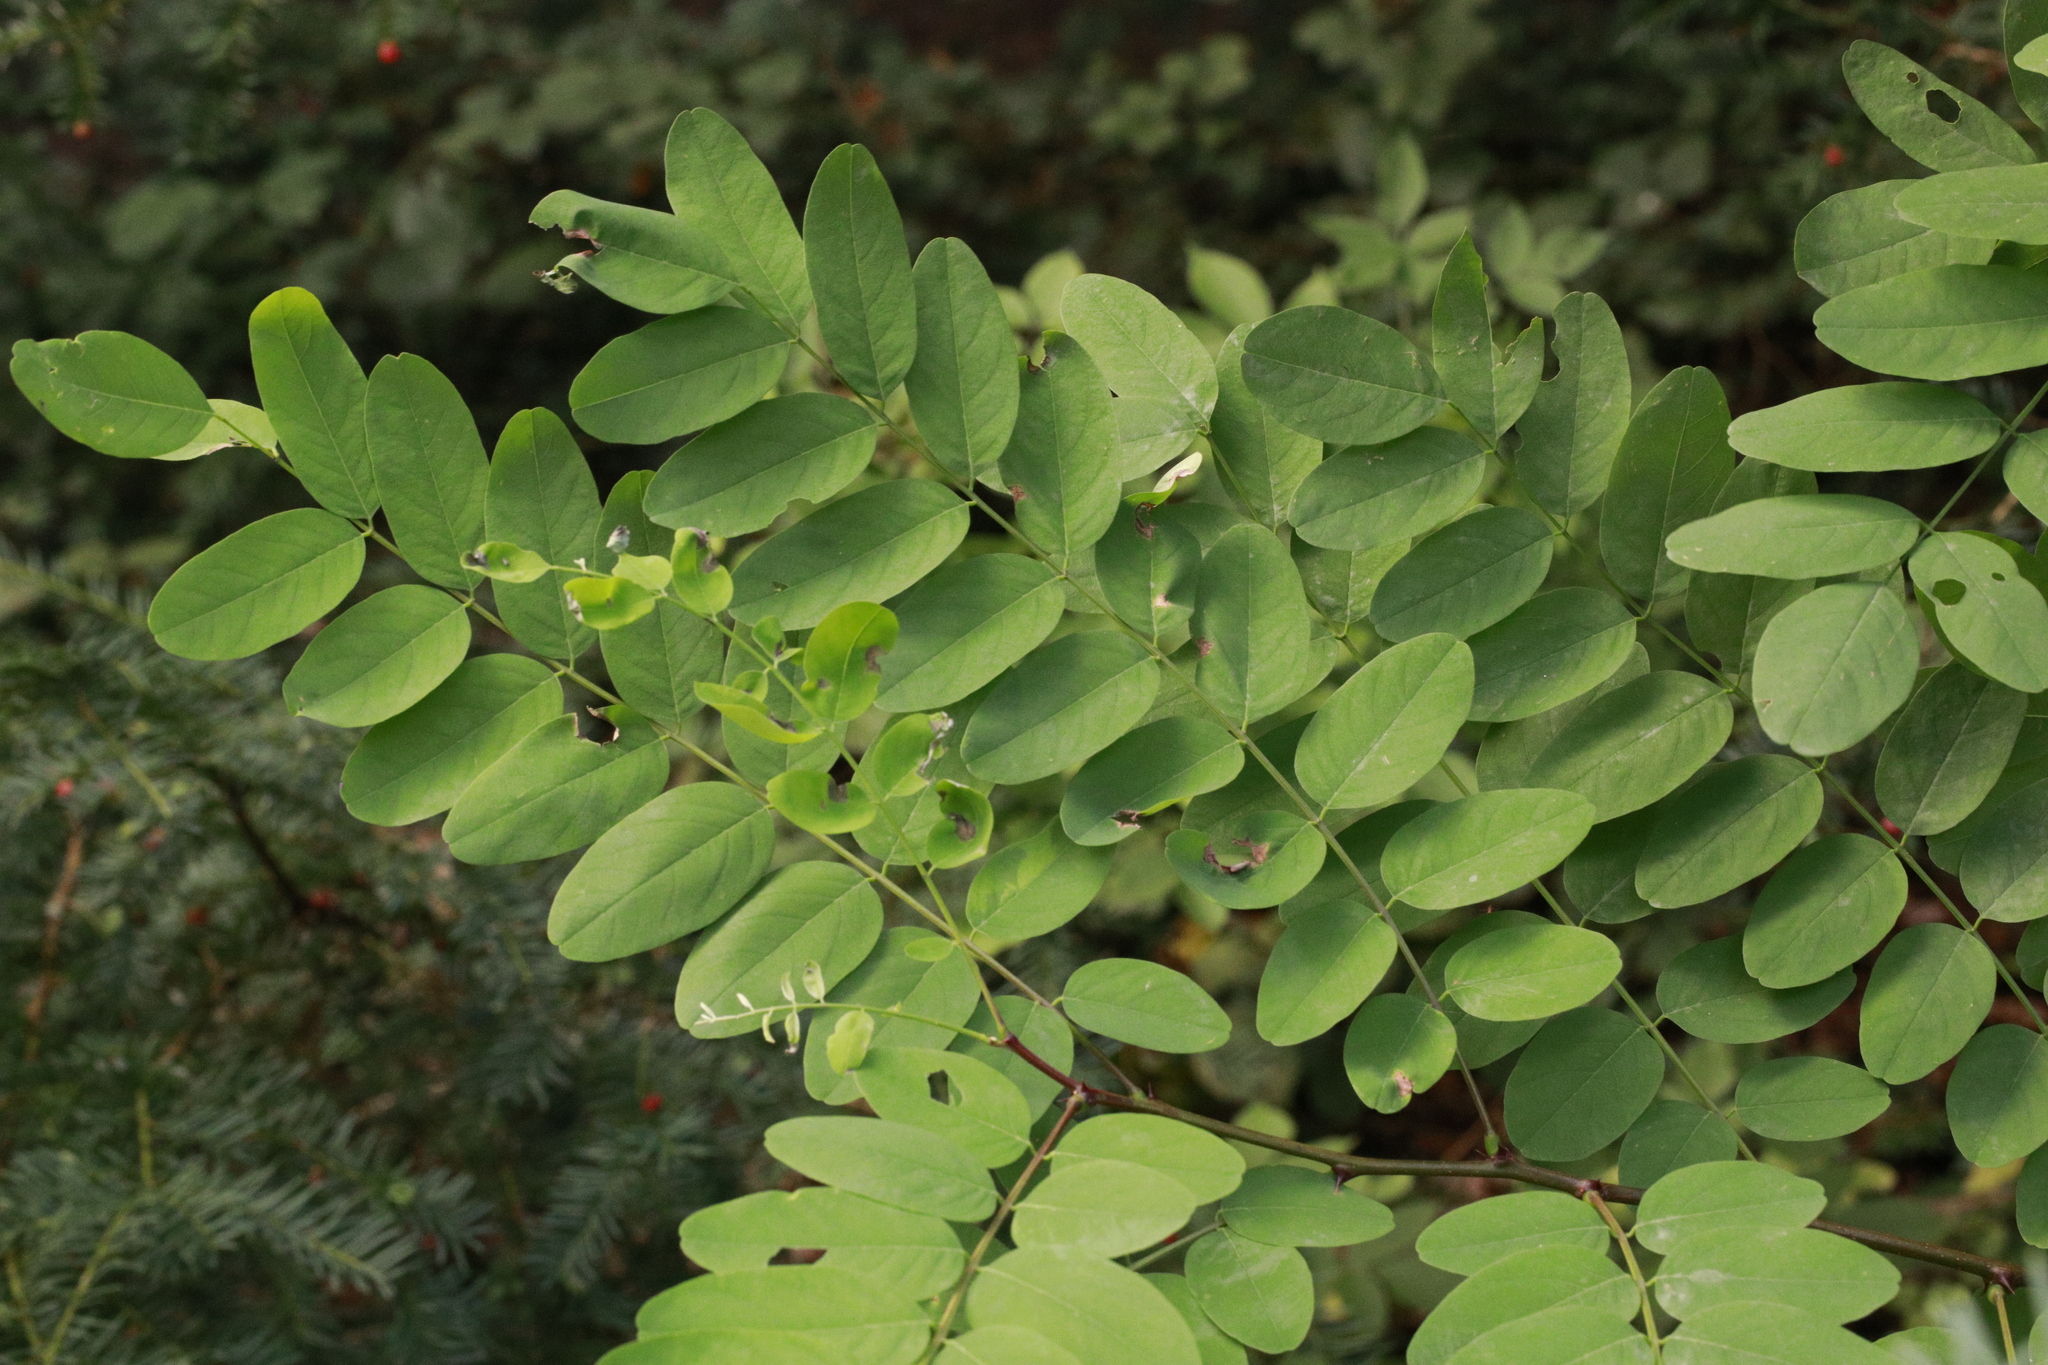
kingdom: Plantae
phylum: Tracheophyta
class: Magnoliopsida
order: Fabales
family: Fabaceae
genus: Robinia
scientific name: Robinia pseudoacacia
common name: Black locust
